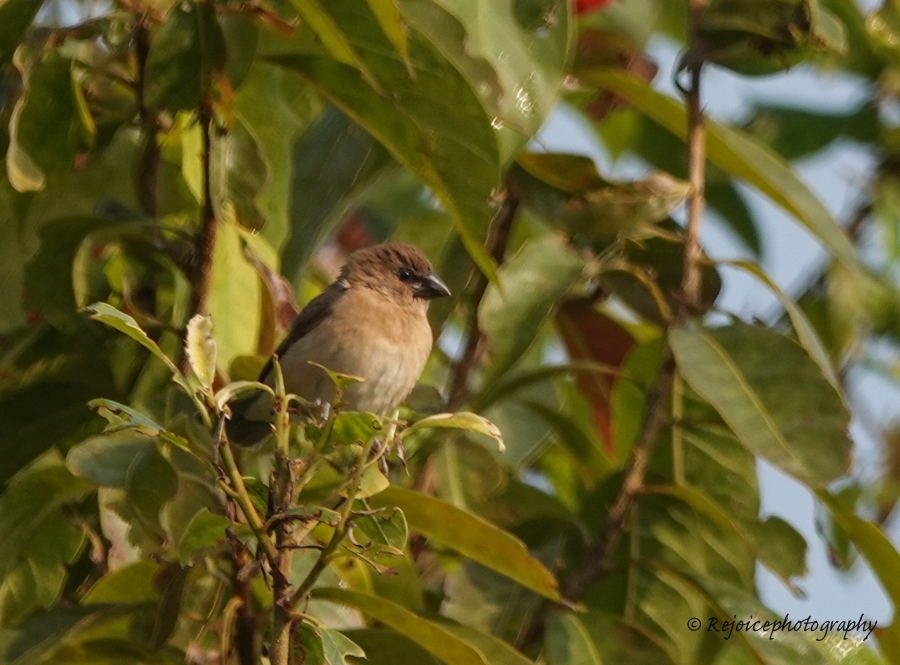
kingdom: Animalia
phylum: Chordata
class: Aves
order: Passeriformes
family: Estrildidae
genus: Lonchura
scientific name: Lonchura punctulata
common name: Scaly-breasted munia
